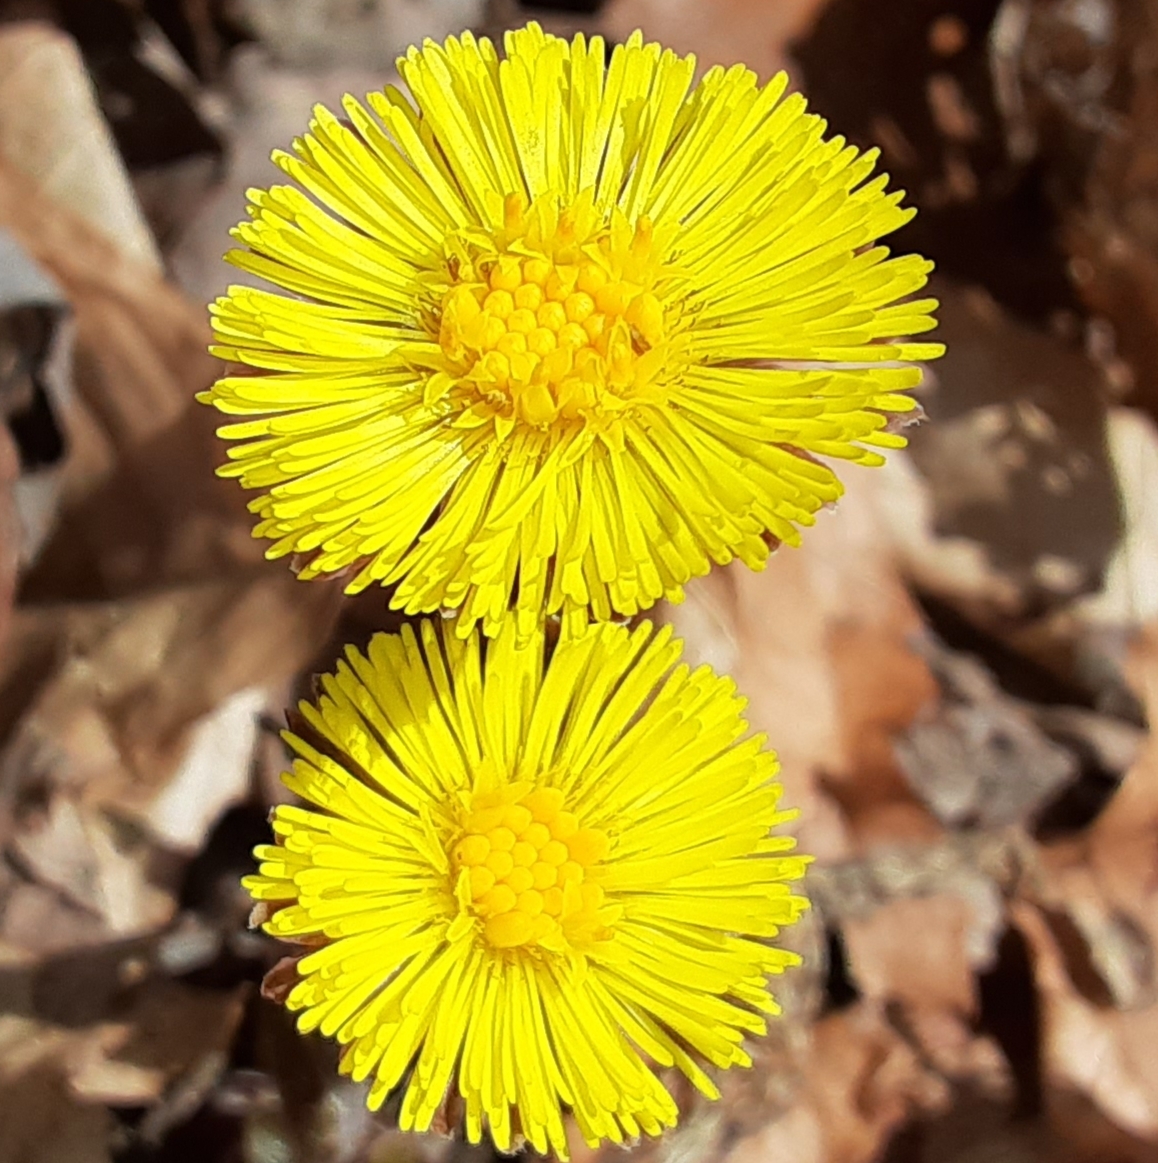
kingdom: Plantae
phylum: Tracheophyta
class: Magnoliopsida
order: Asterales
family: Asteraceae
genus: Tussilago
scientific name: Tussilago farfara
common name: Coltsfoot
